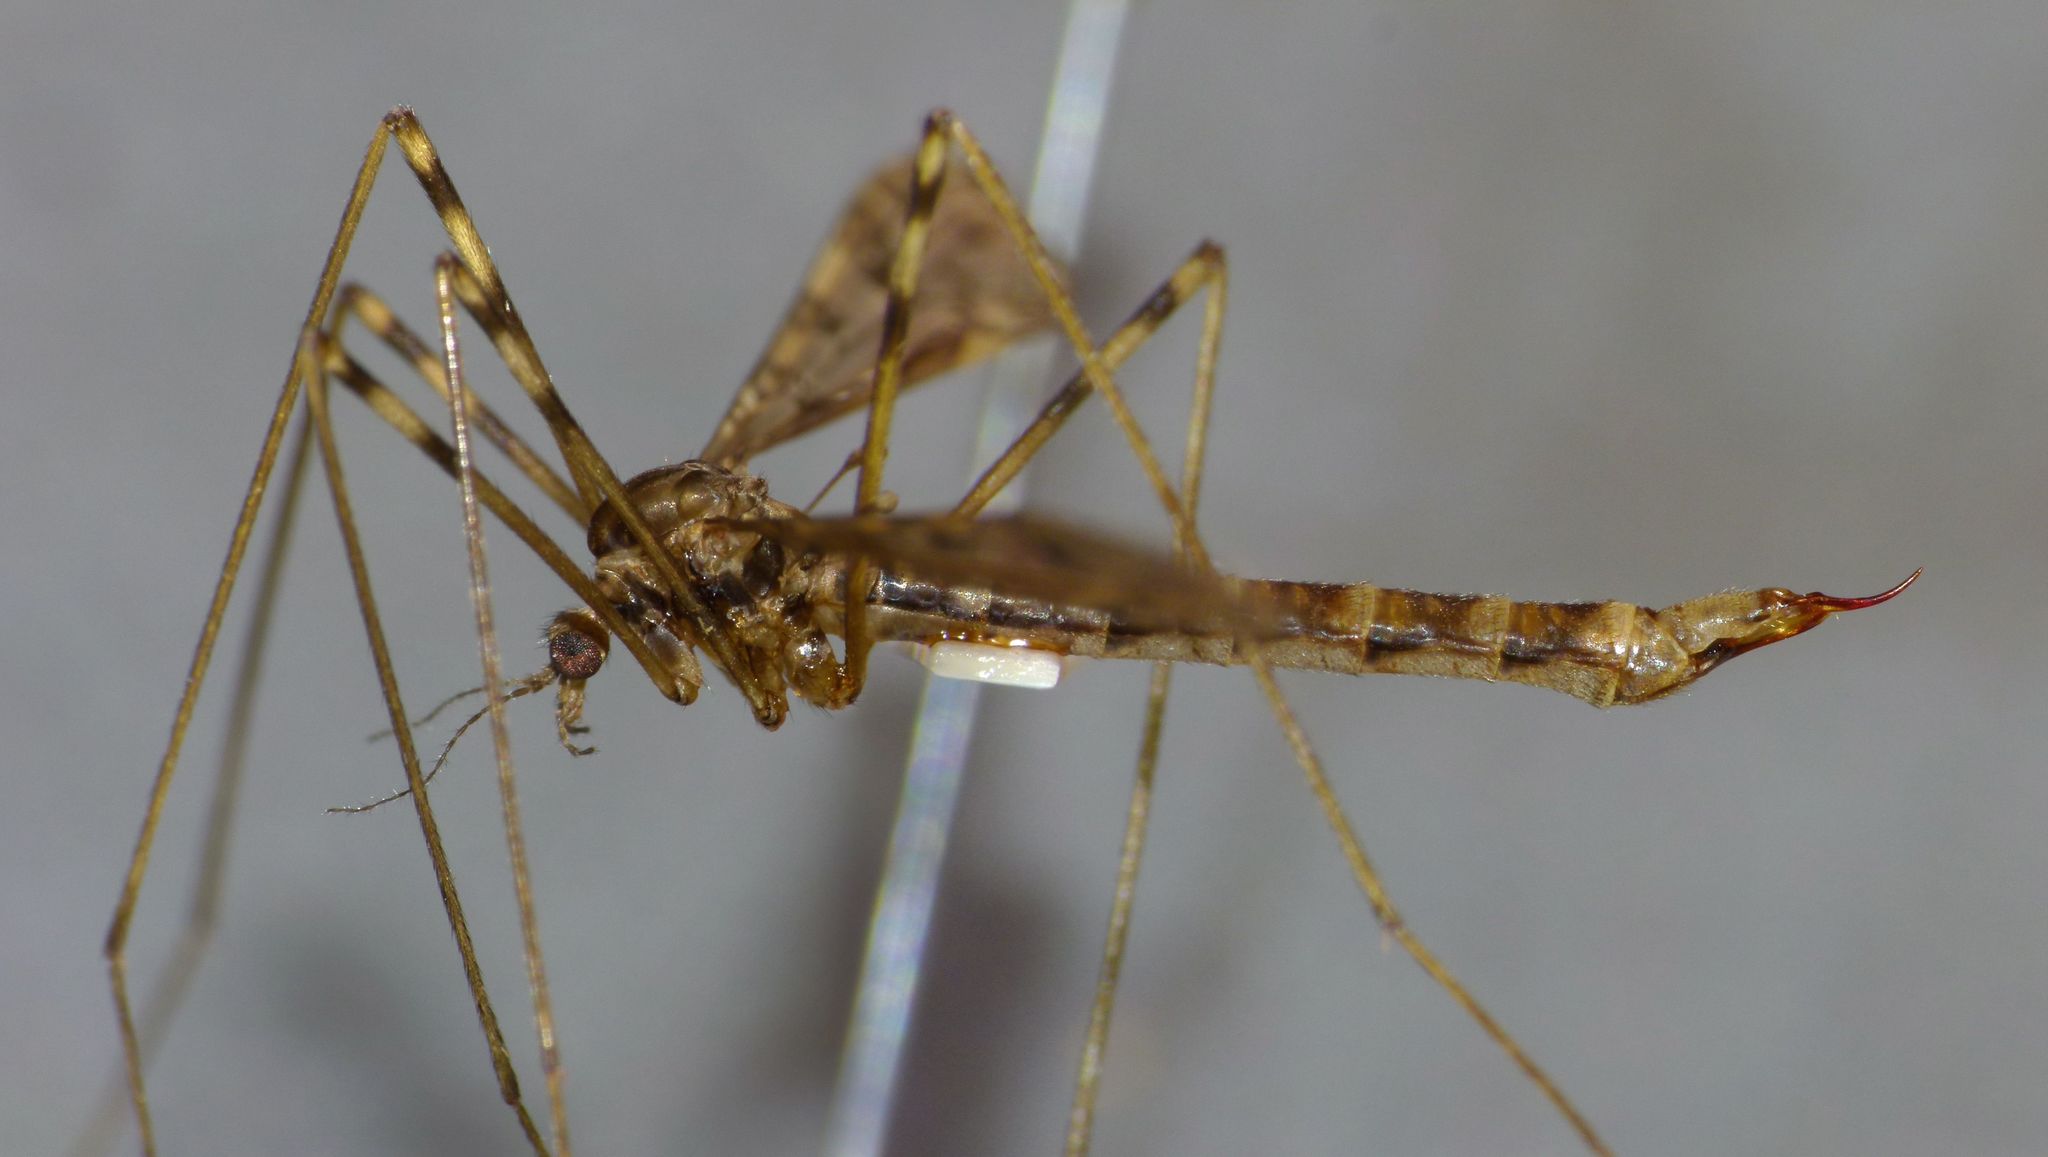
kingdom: Animalia
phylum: Arthropoda
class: Insecta
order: Diptera
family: Limoniidae
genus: Austrolimnophila
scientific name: Austrolimnophila stewartiae
